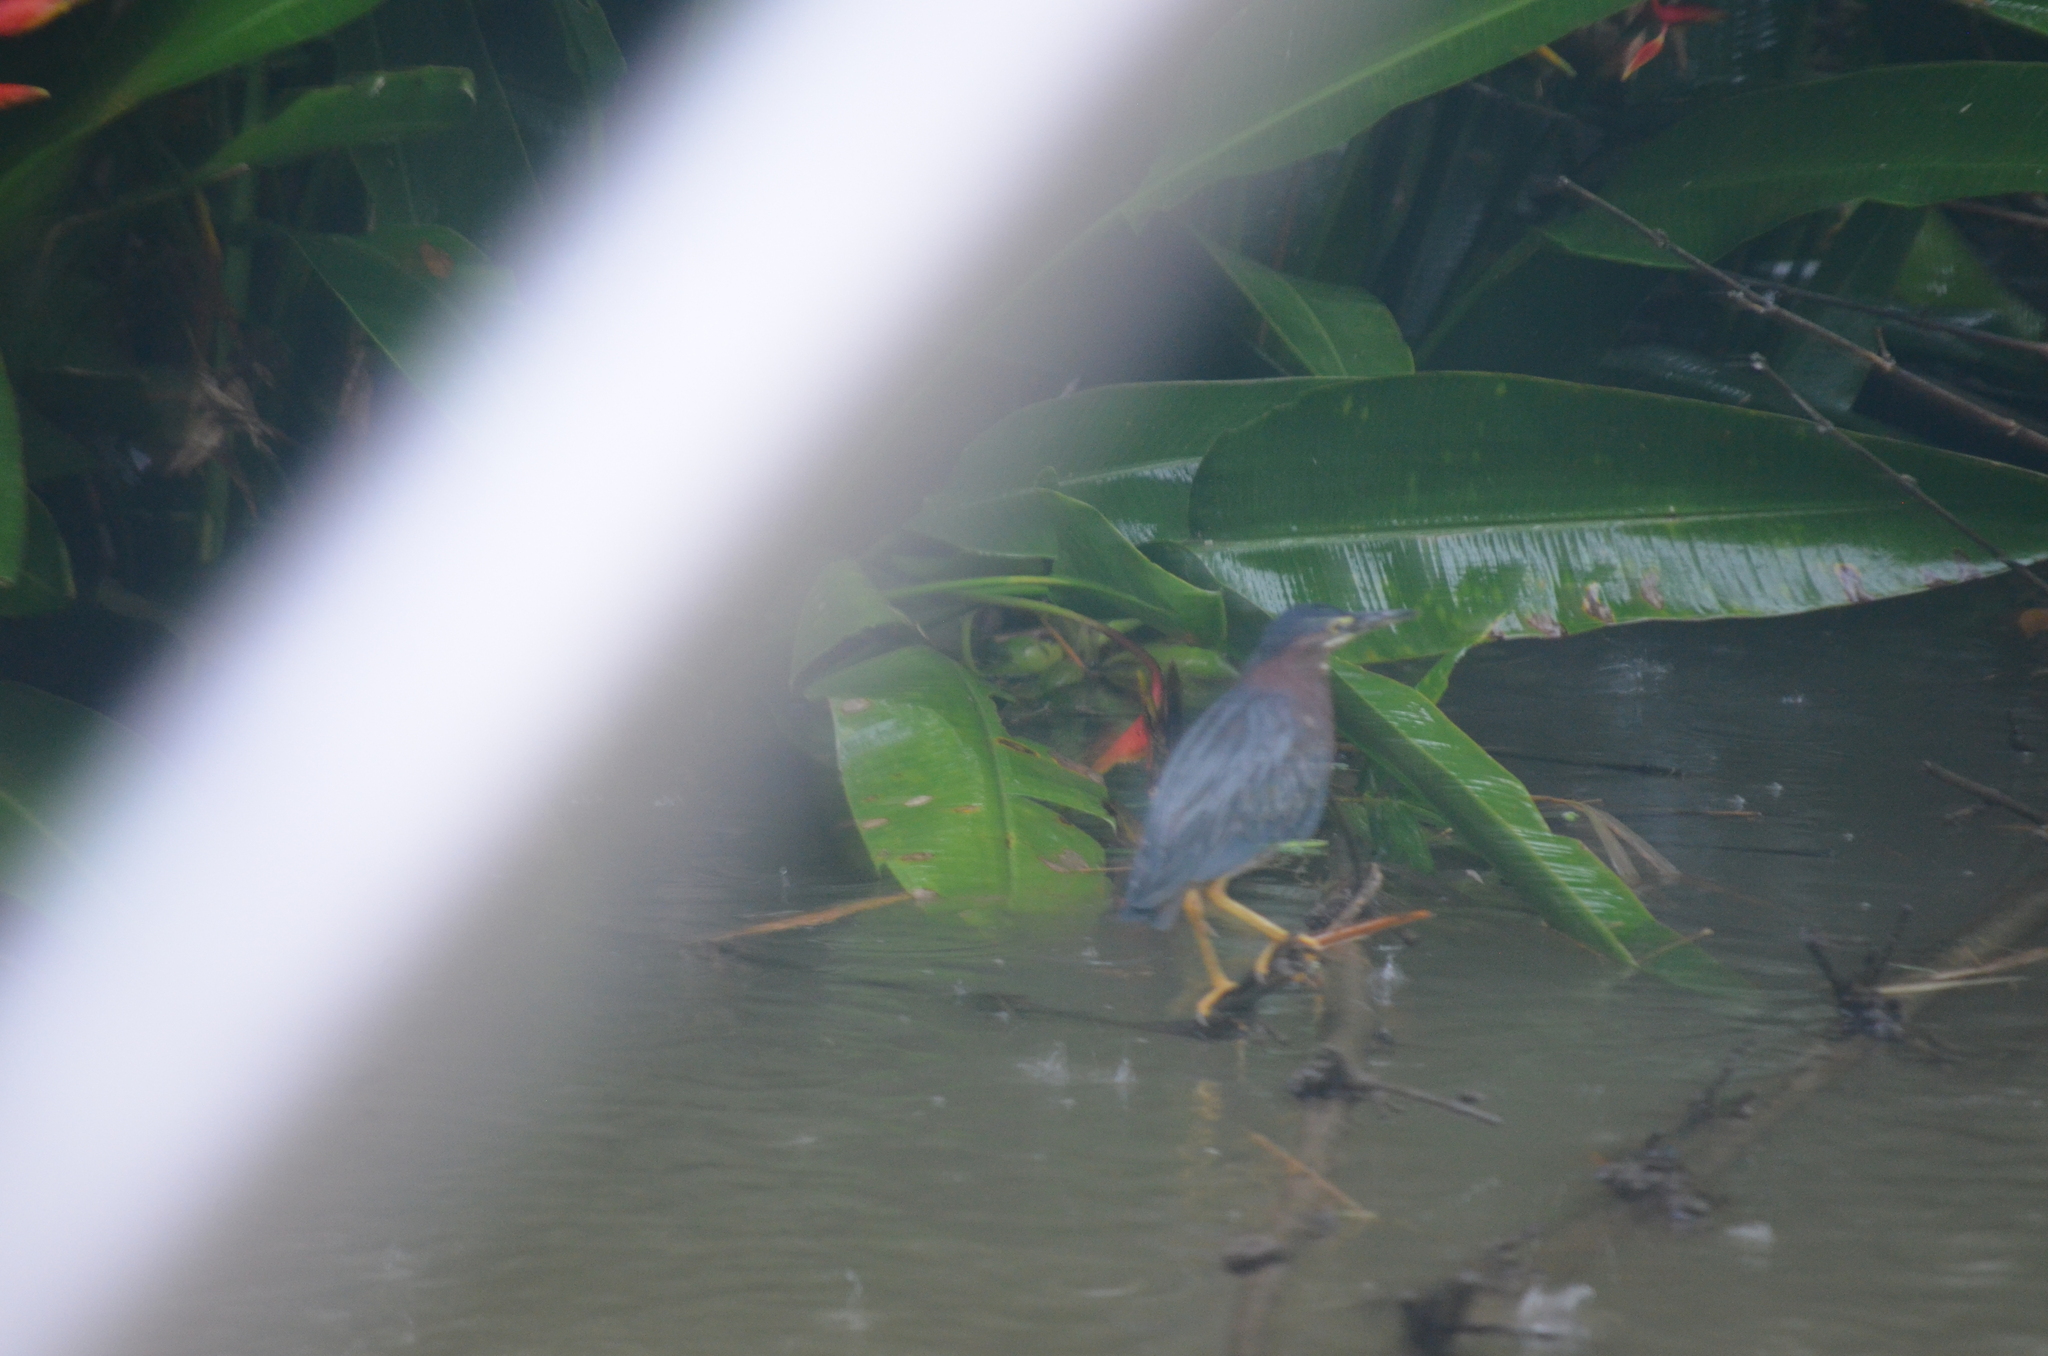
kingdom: Animalia
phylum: Chordata
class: Aves
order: Pelecaniformes
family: Ardeidae
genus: Butorides
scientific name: Butorides virescens
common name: Green heron
